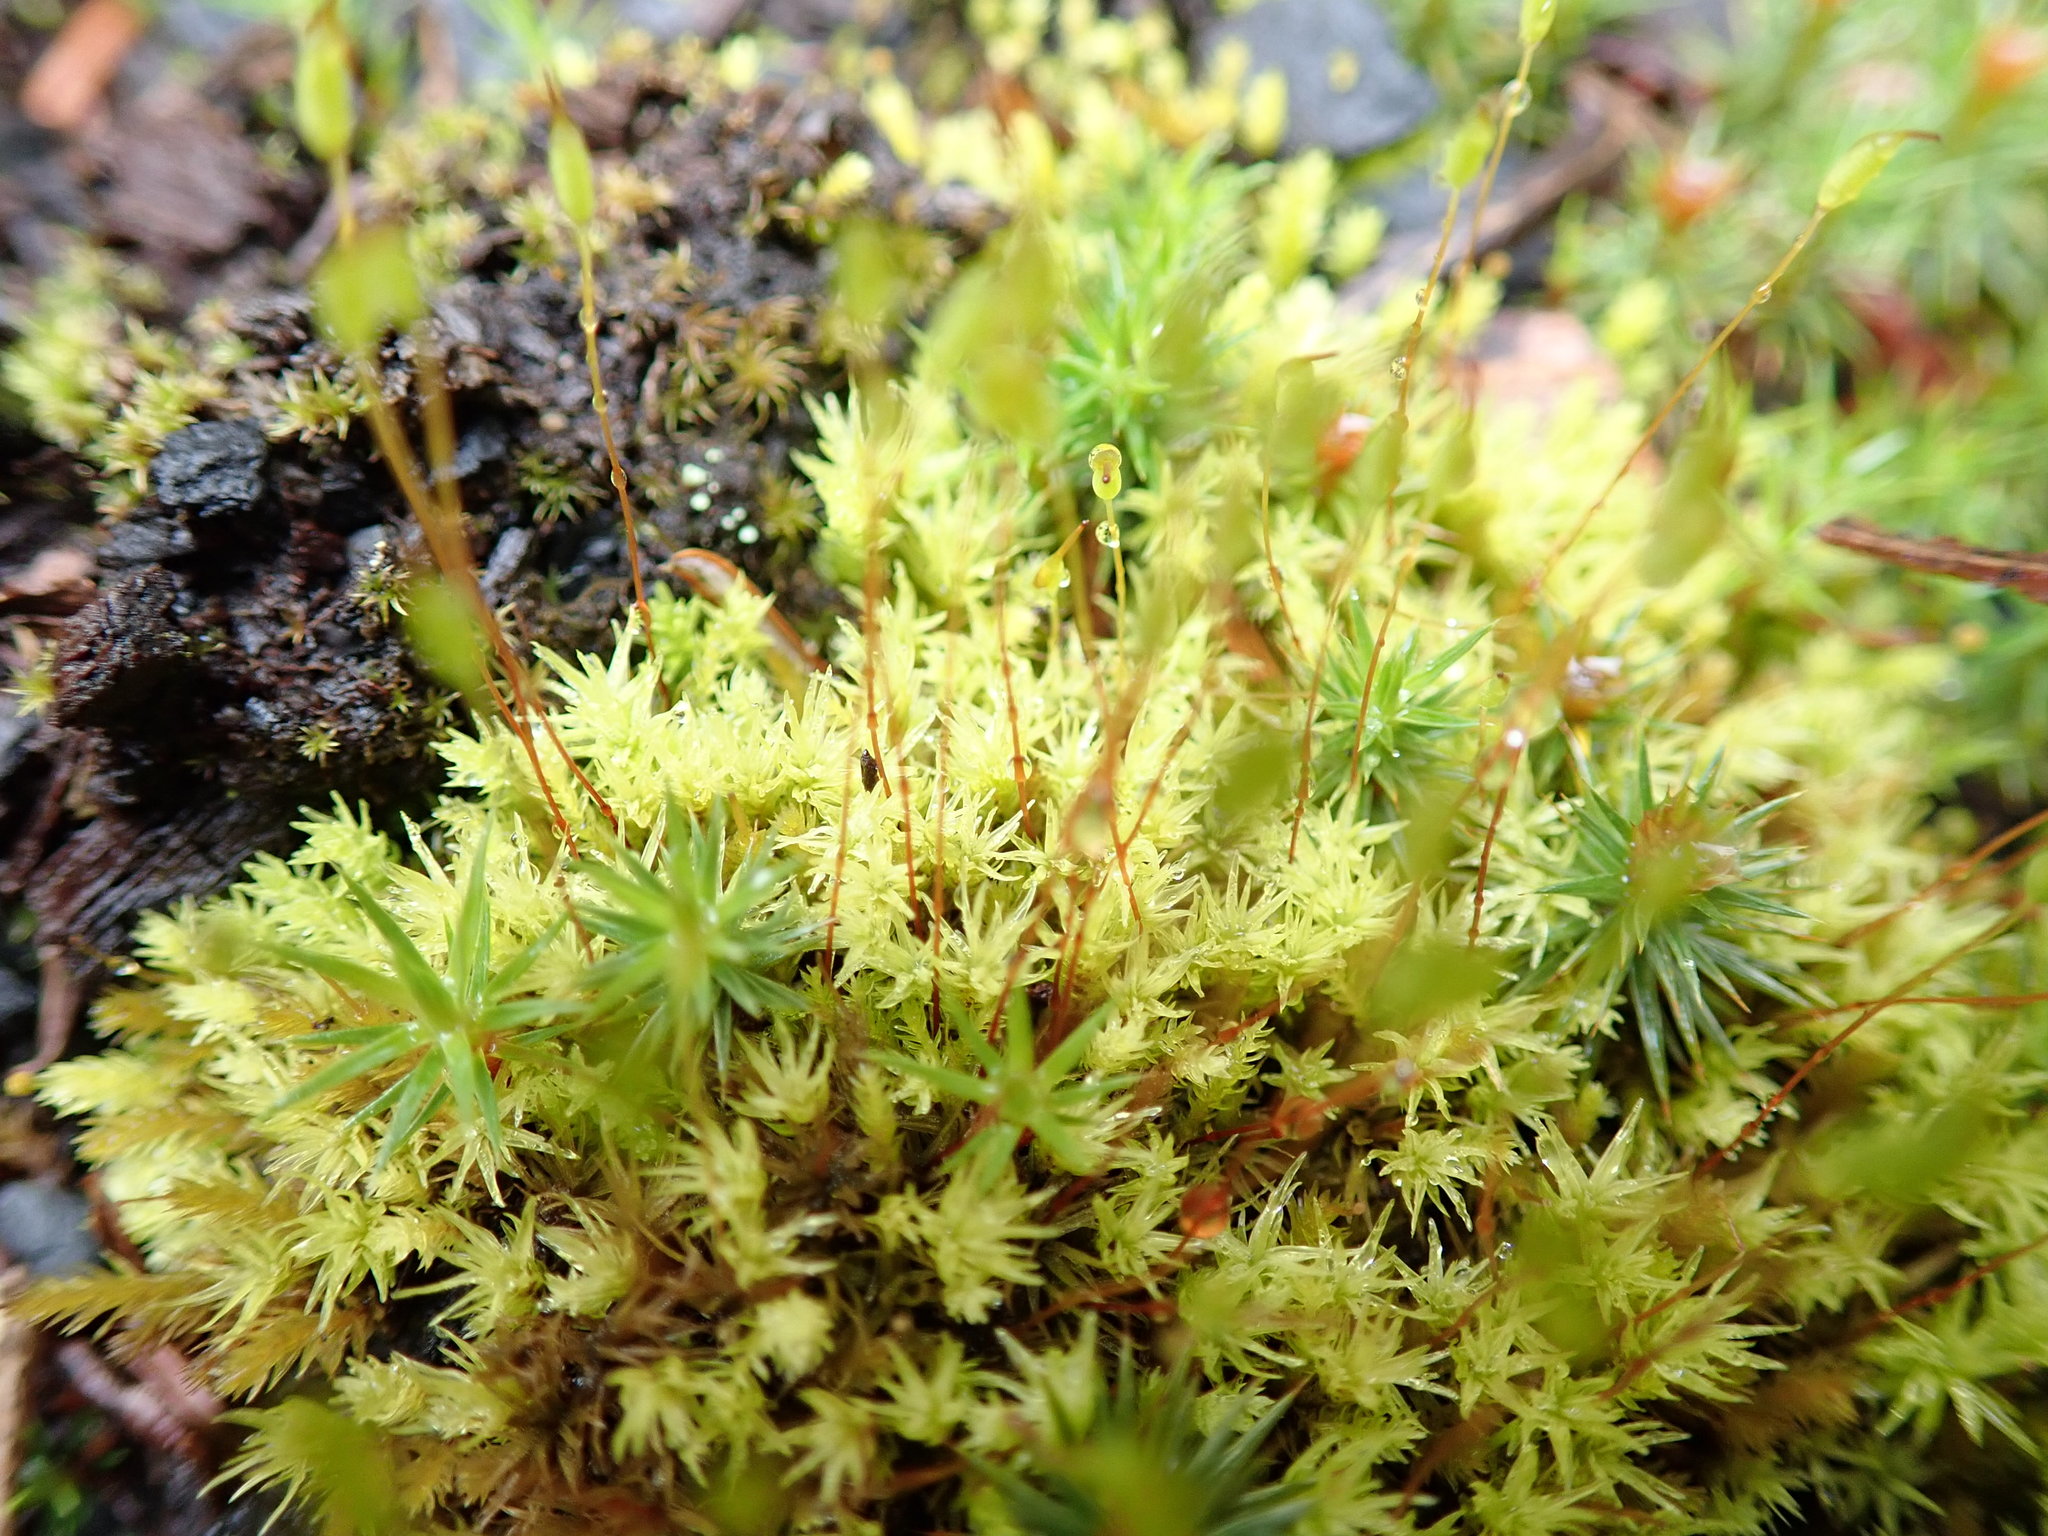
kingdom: Plantae
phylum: Bryophyta
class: Bryopsida
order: Aulacomniales
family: Aulacomniaceae
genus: Aulacomnium
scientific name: Aulacomnium androgynum
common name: Little groove moss
